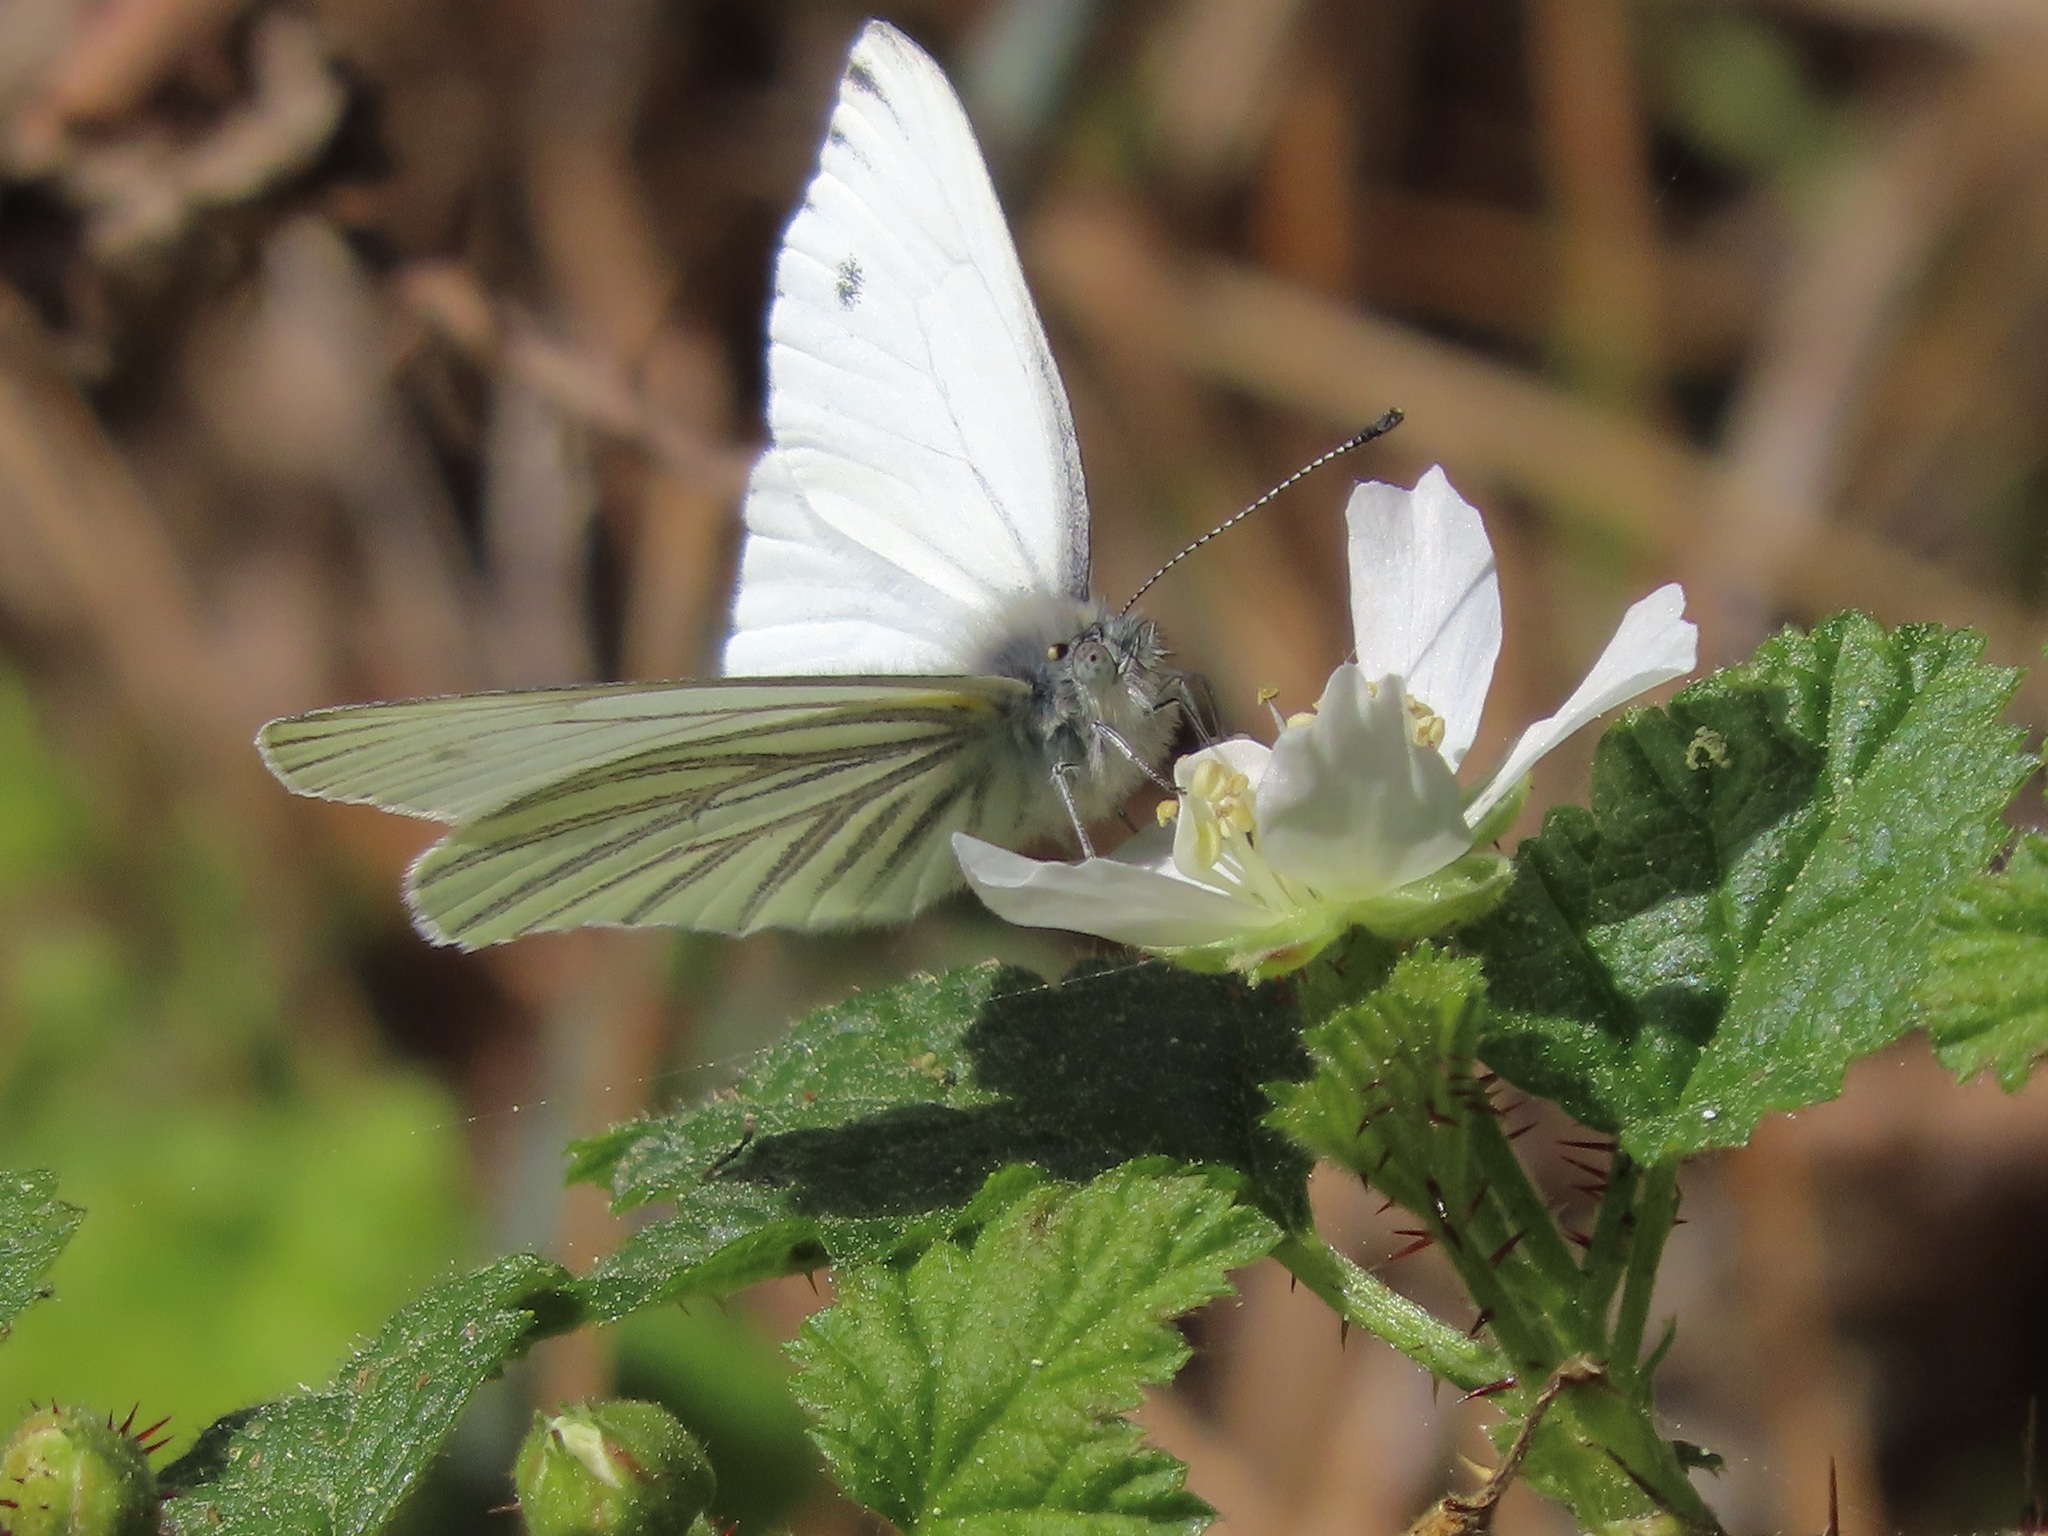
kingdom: Animalia
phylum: Arthropoda
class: Insecta
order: Lepidoptera
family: Pieridae
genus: Pieris
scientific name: Pieris marginalis
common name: Margined white
